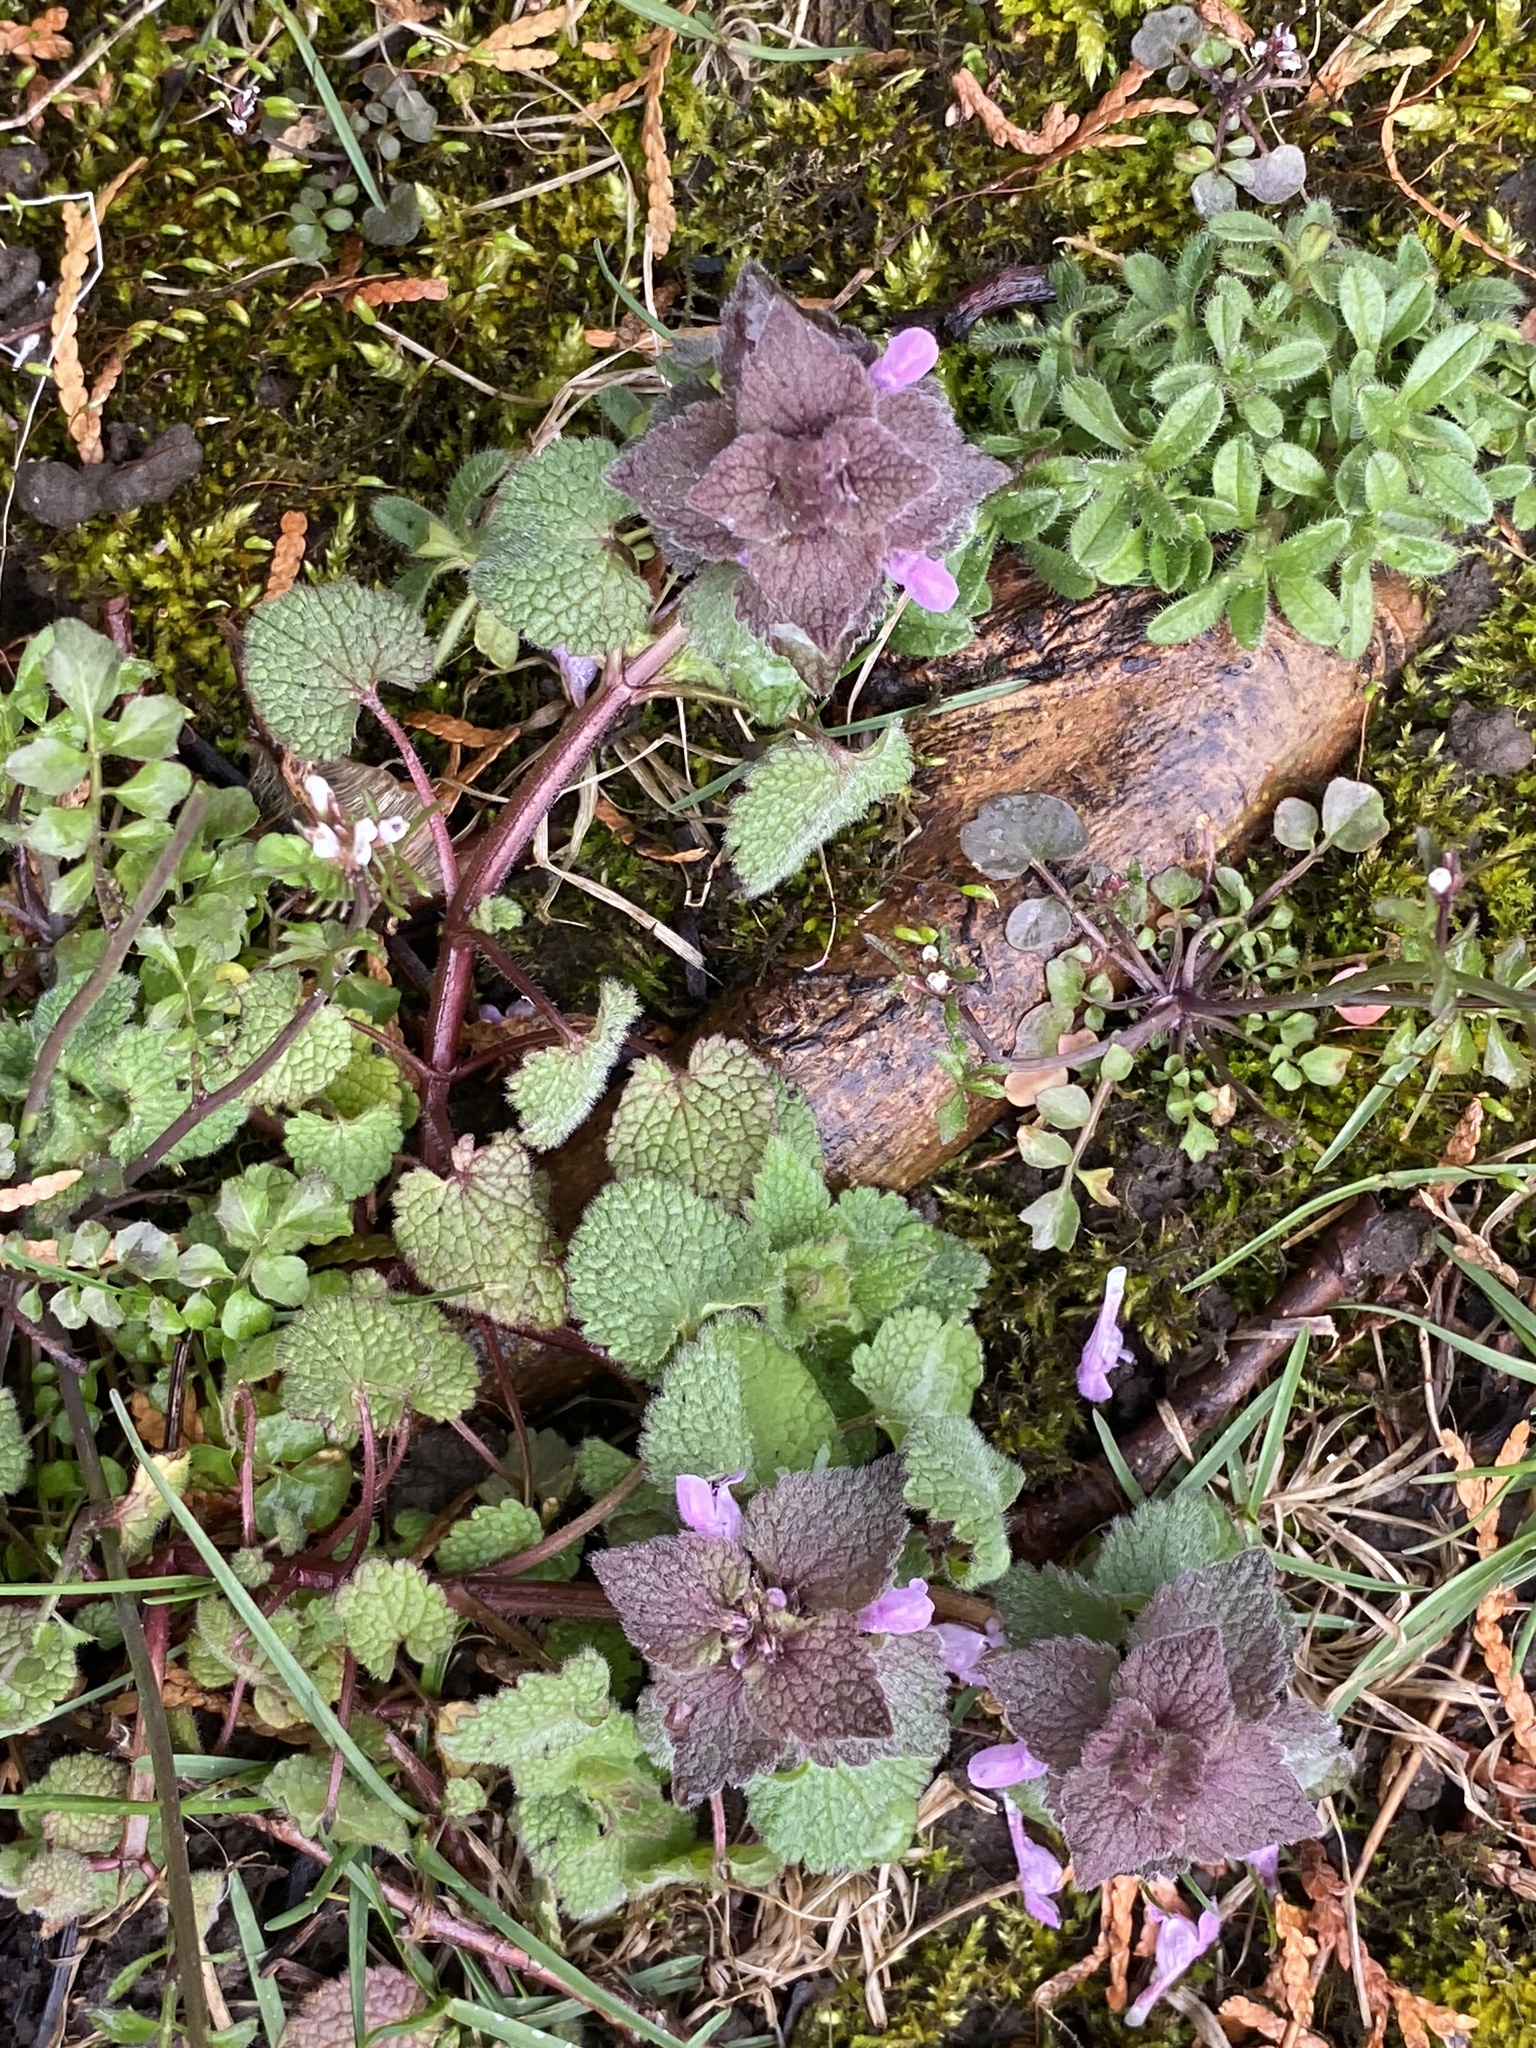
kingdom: Plantae
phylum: Tracheophyta
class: Magnoliopsida
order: Lamiales
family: Lamiaceae
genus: Lamium
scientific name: Lamium purpureum
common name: Red dead-nettle
